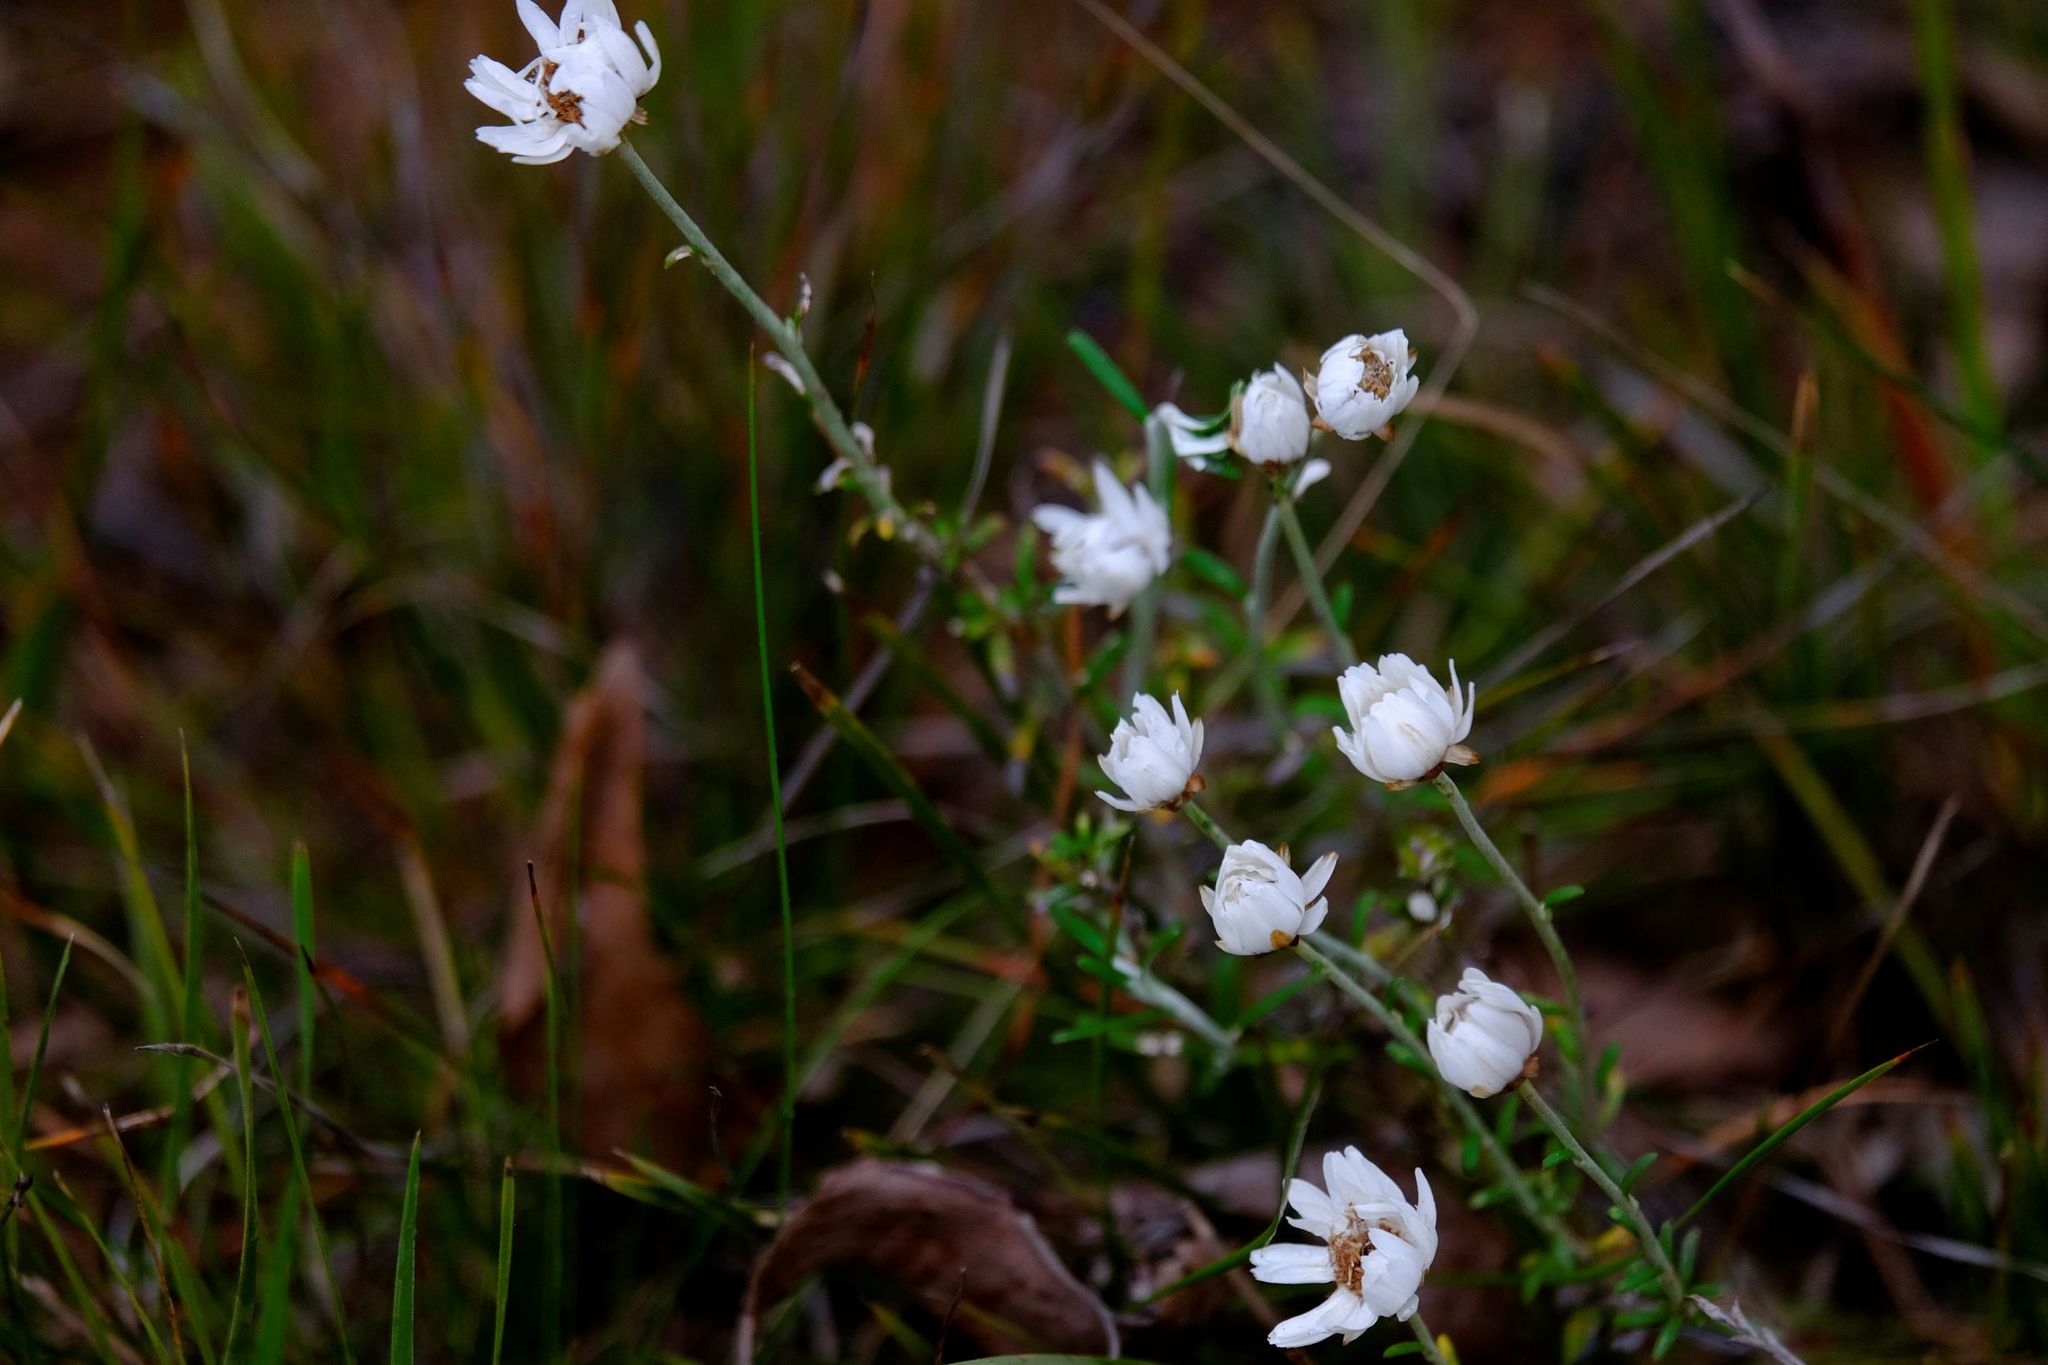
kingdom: Plantae
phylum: Tracheophyta
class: Magnoliopsida
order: Asterales
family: Asteraceae
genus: Argentipallium
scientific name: Argentipallium obtusifolium
